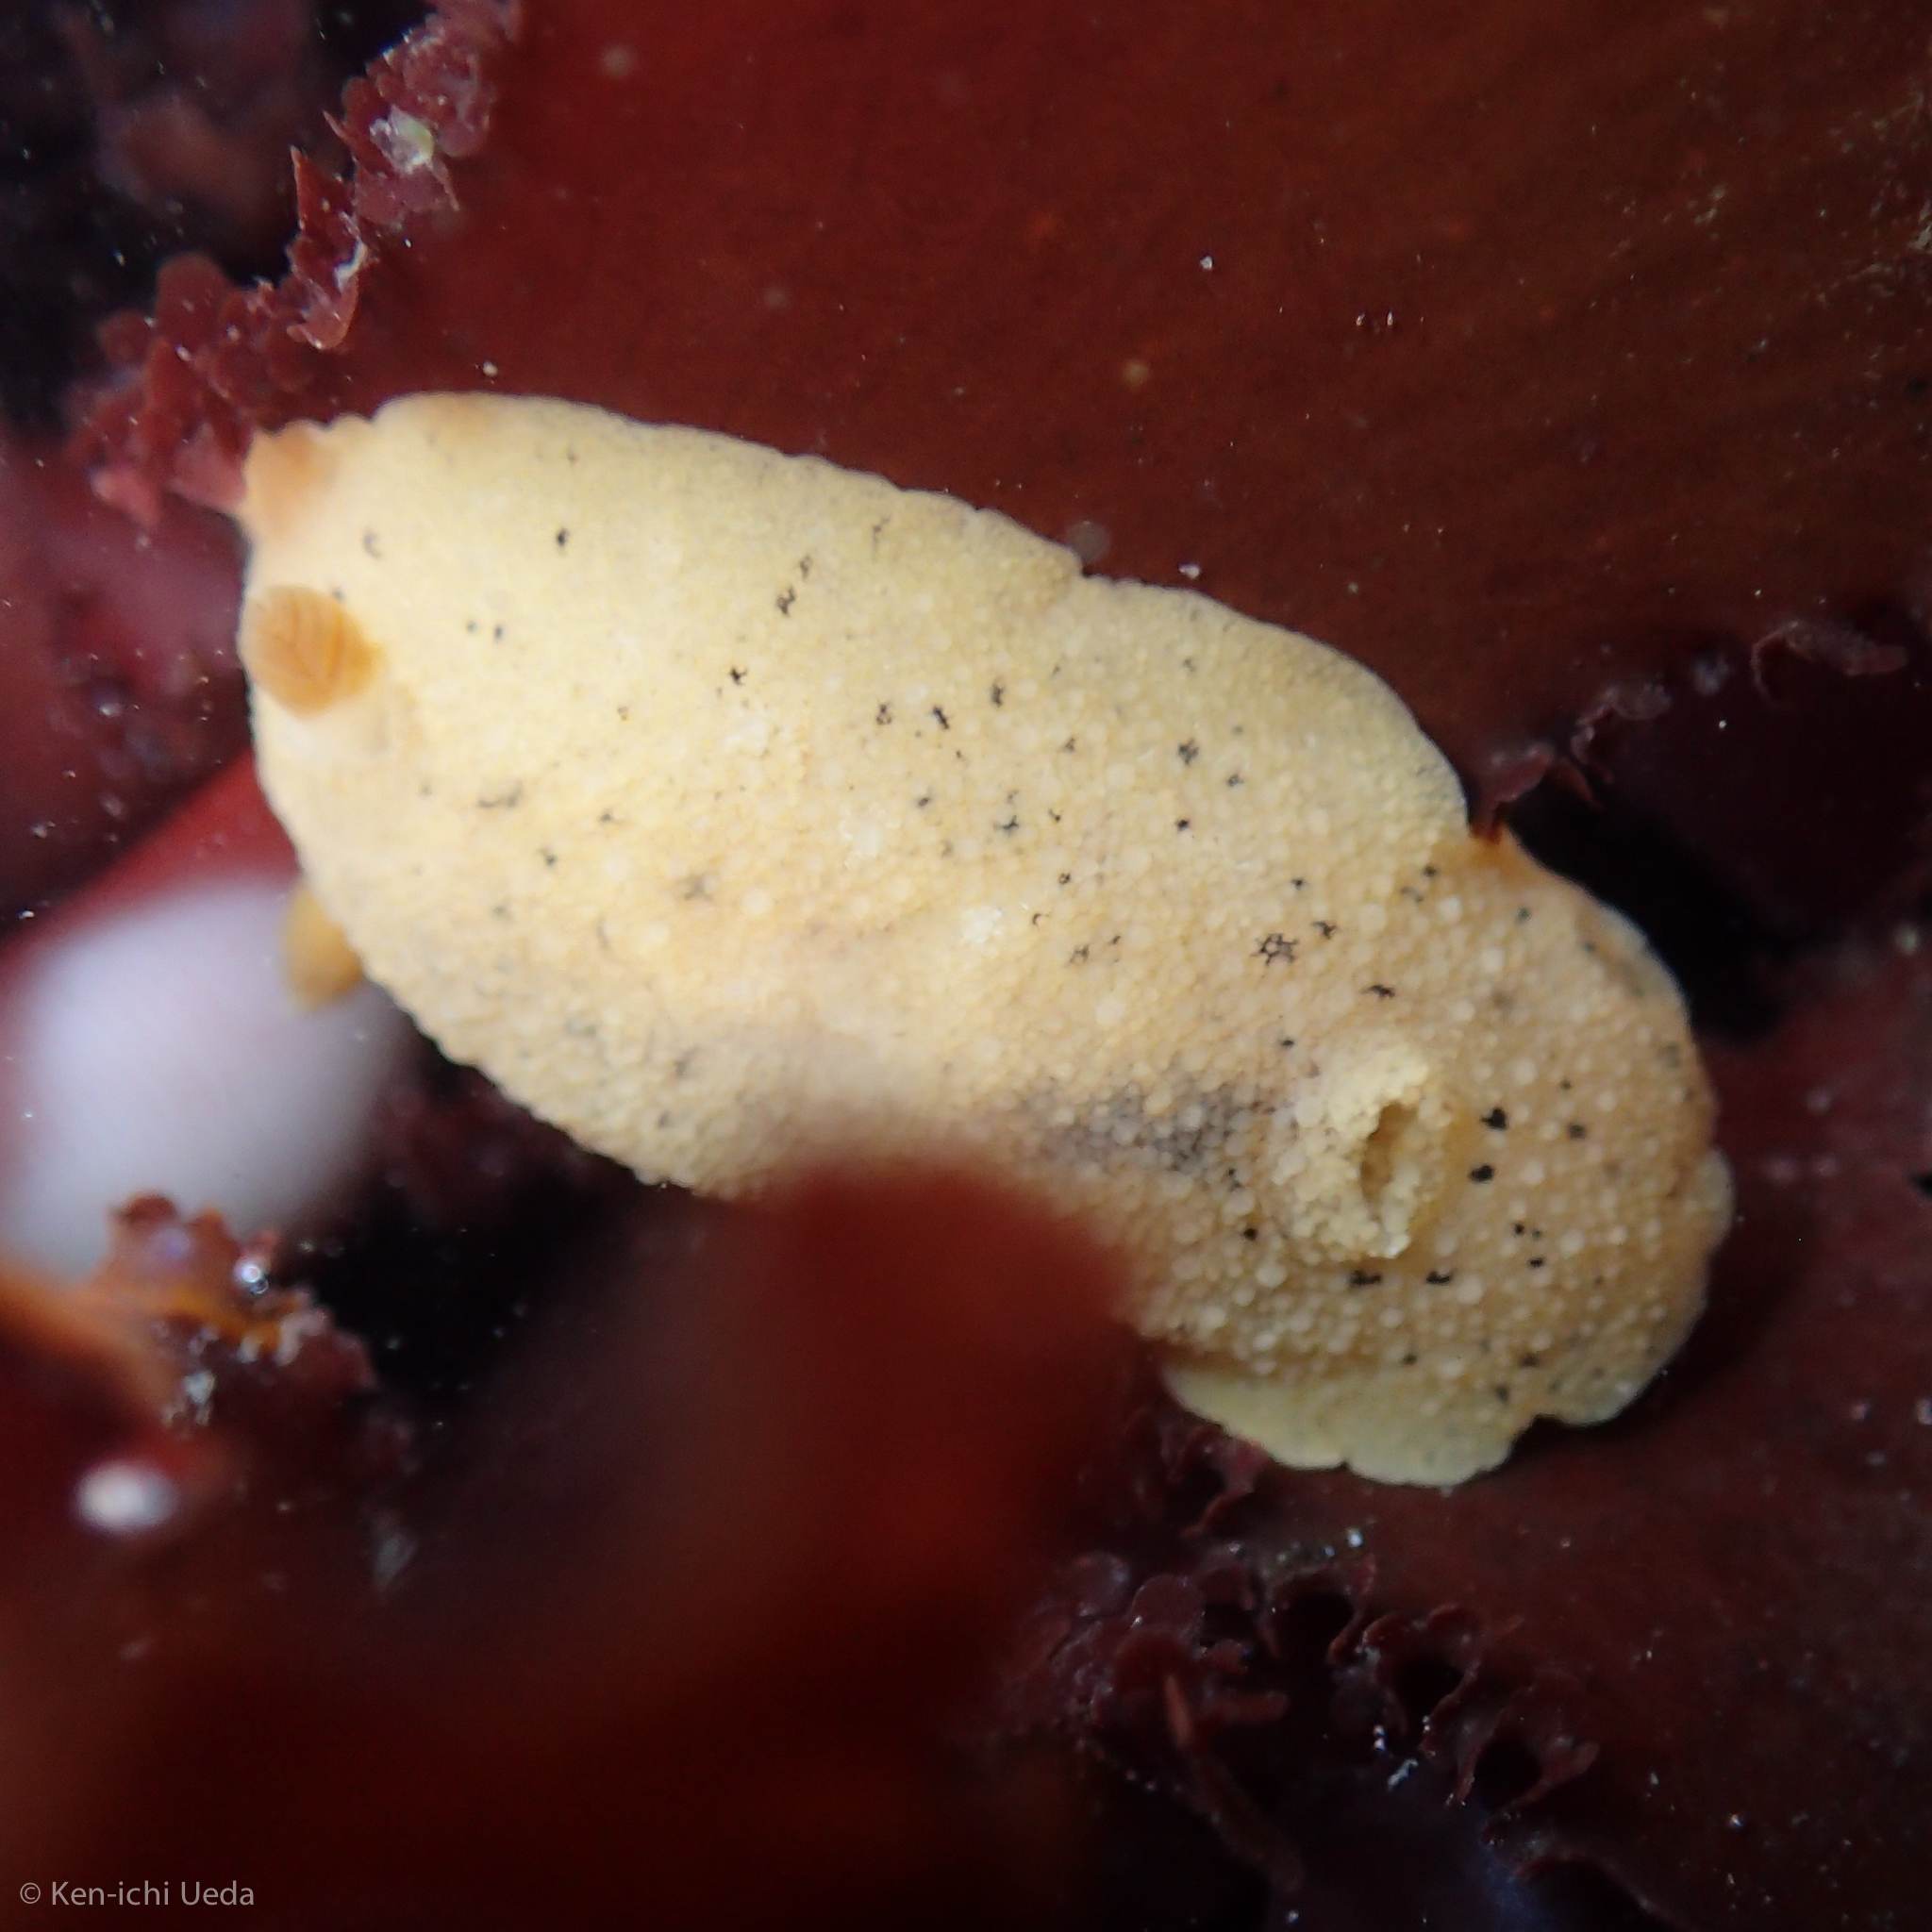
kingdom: Animalia
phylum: Mollusca
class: Gastropoda
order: Nudibranchia
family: Discodorididae
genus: Geitodoris
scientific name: Geitodoris heathi
